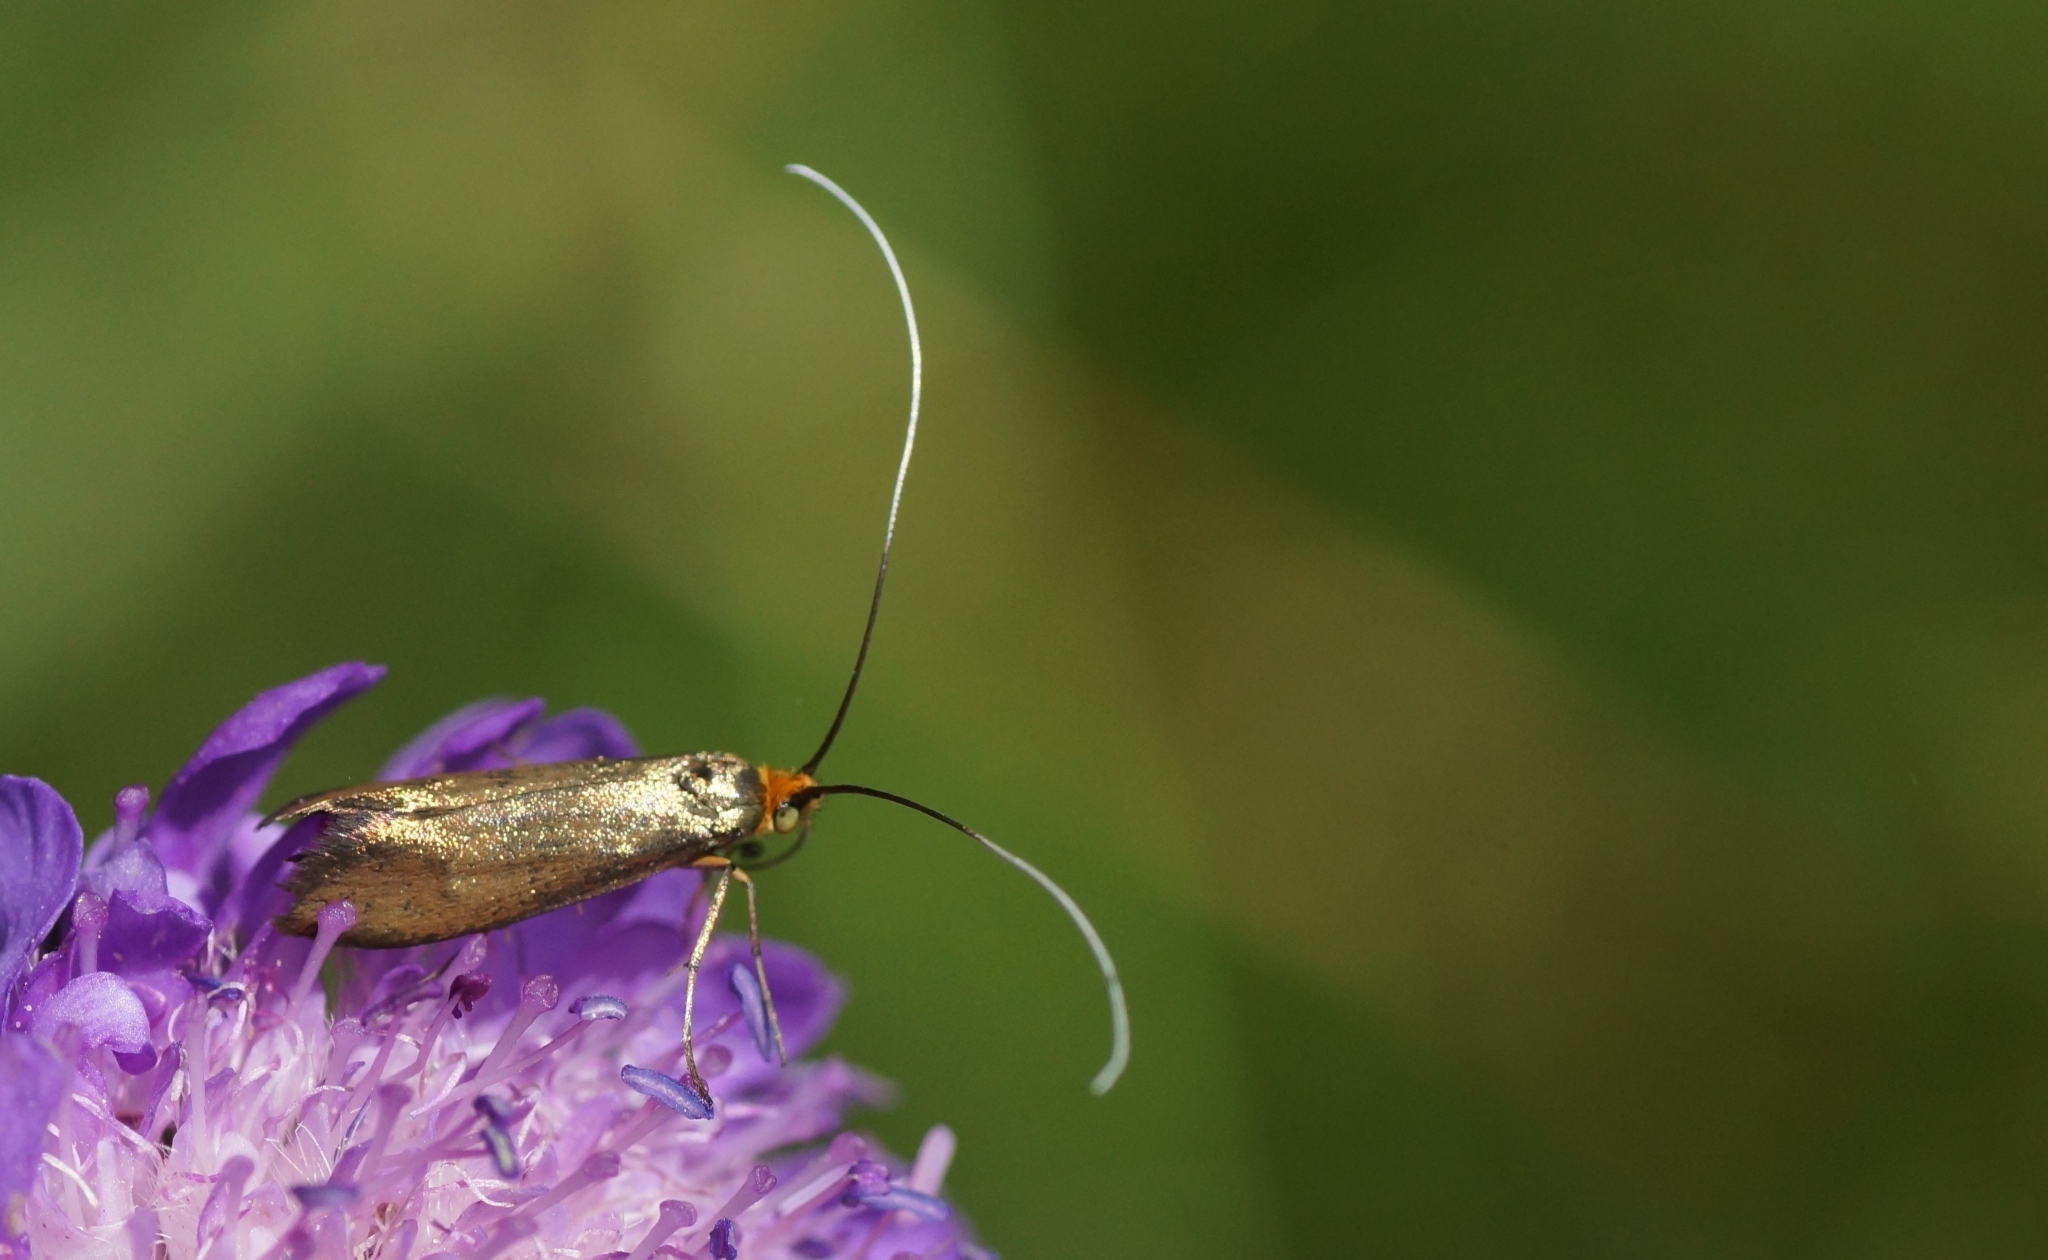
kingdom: Animalia
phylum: Arthropoda
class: Insecta
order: Lepidoptera
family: Adelidae
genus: Nemophora
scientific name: Nemophora metallica
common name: Brassy long-horn
